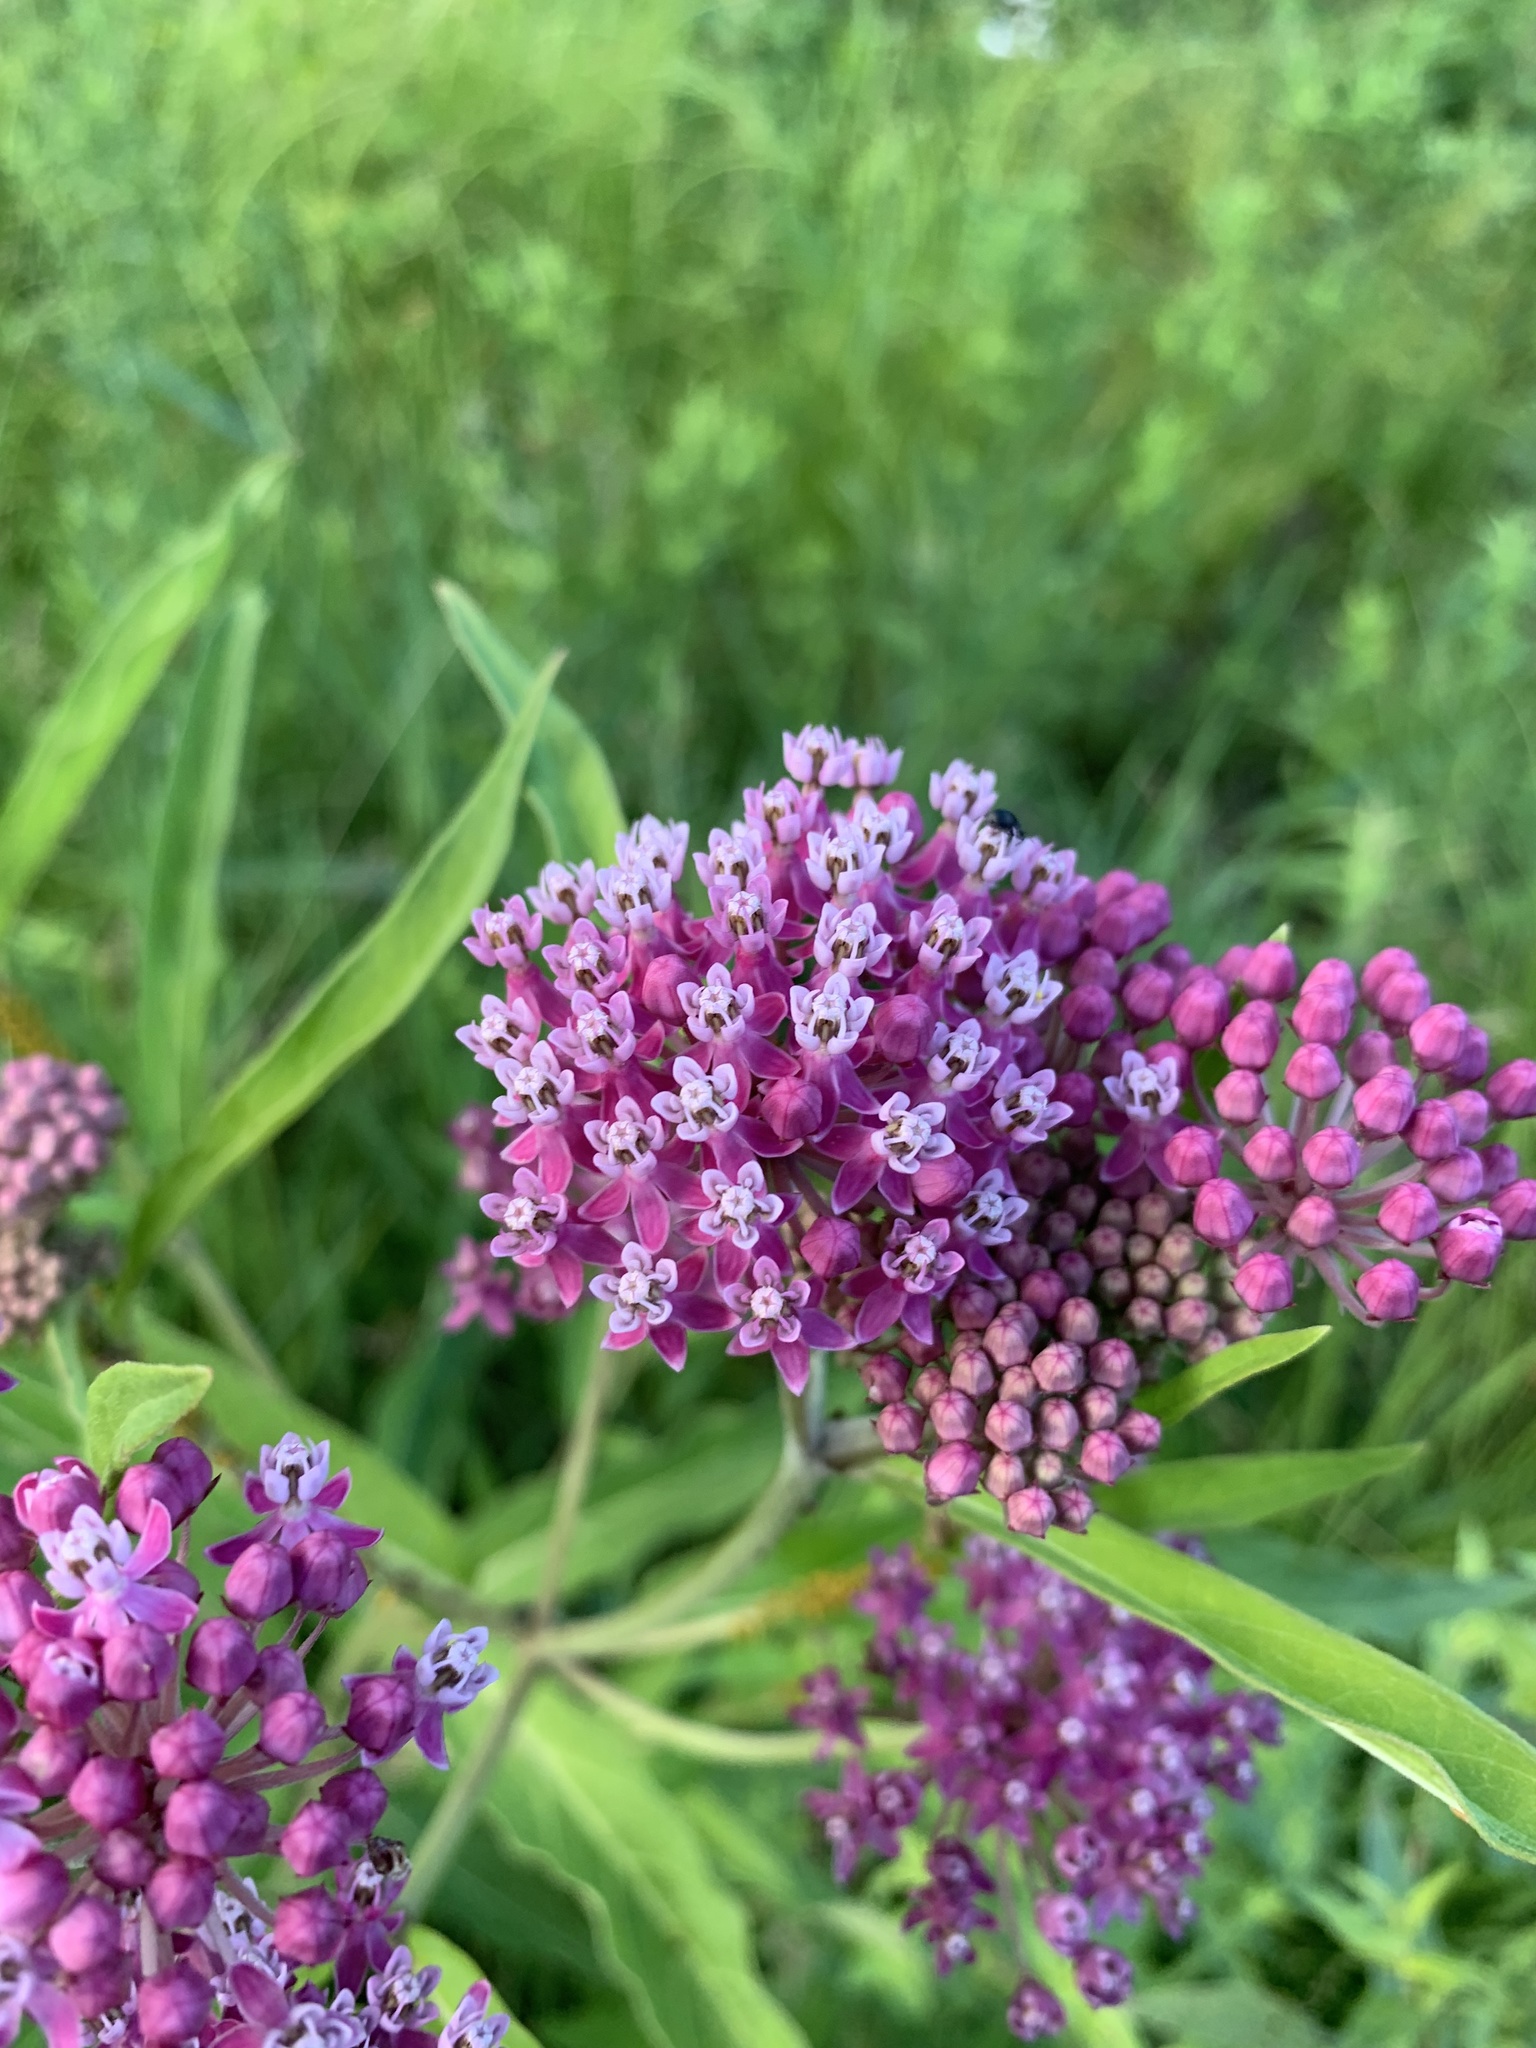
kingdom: Plantae
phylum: Tracheophyta
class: Magnoliopsida
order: Gentianales
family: Apocynaceae
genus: Asclepias
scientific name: Asclepias incarnata
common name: Swamp milkweed
